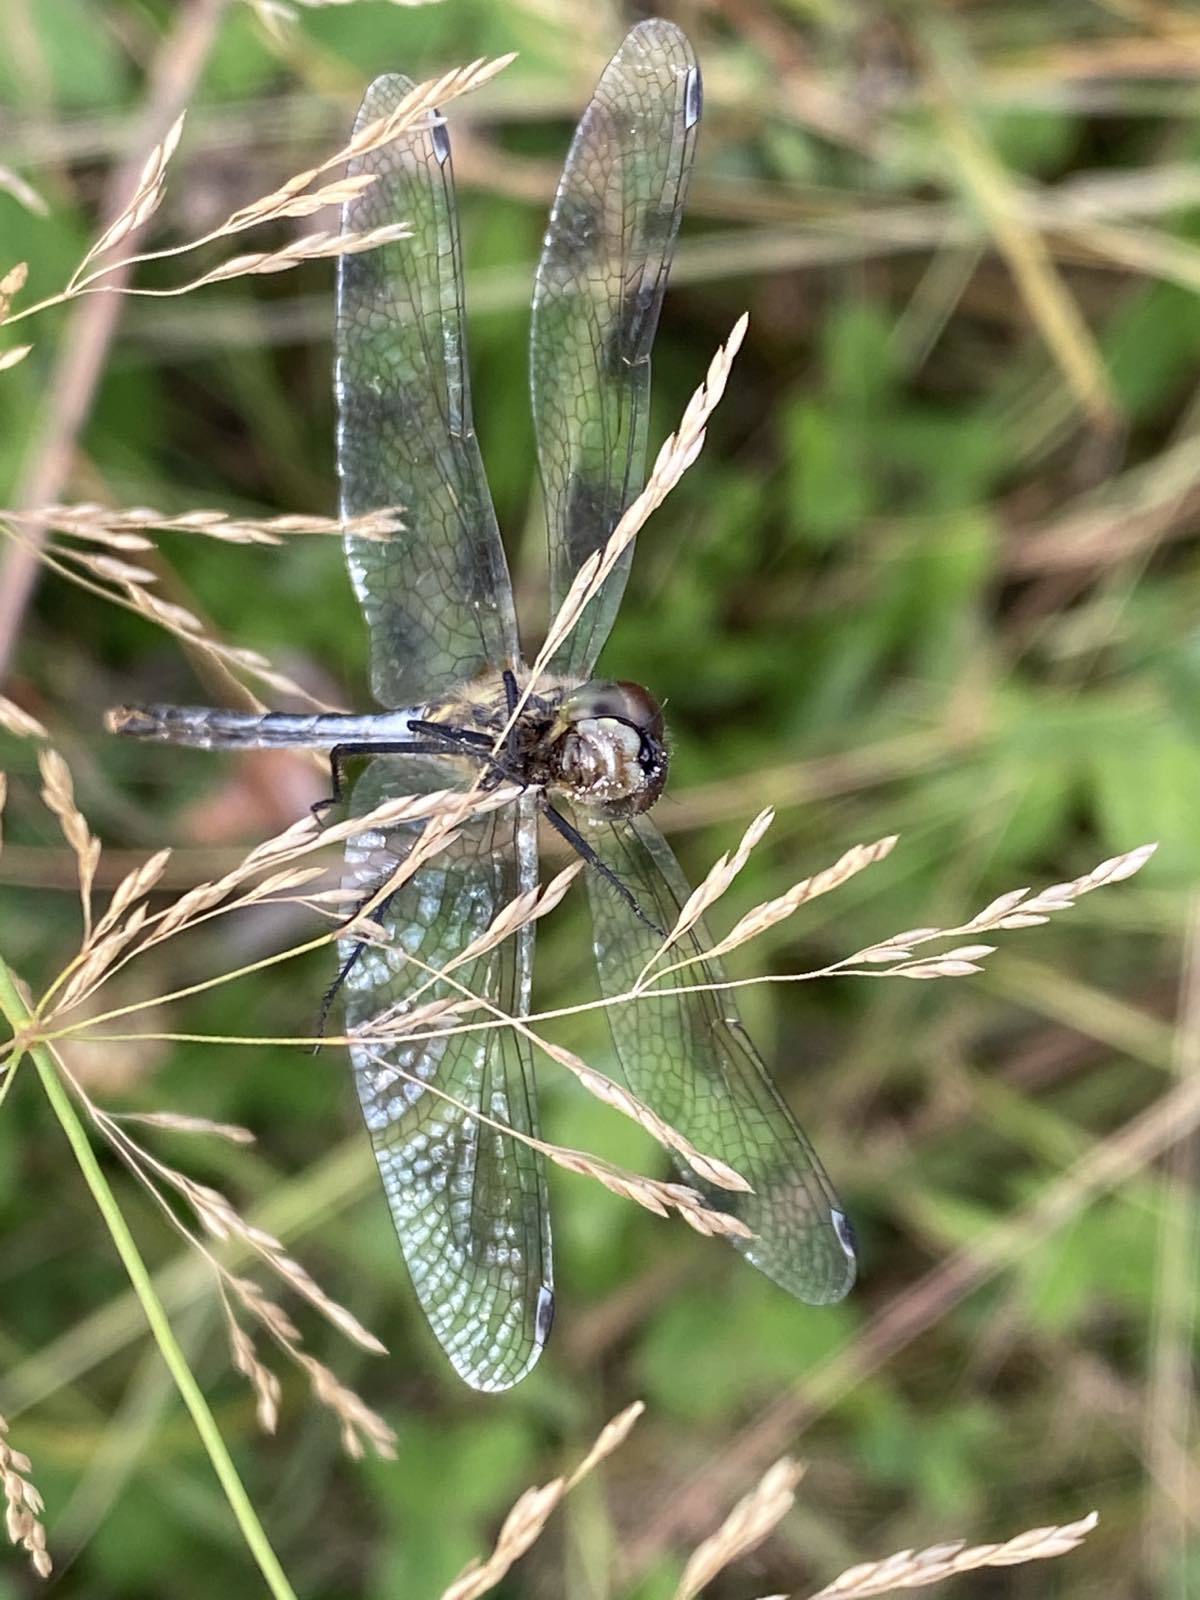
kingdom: Animalia
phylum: Arthropoda
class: Insecta
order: Odonata
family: Libellulidae
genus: Sympetrum
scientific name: Sympetrum danae
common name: Black darter
